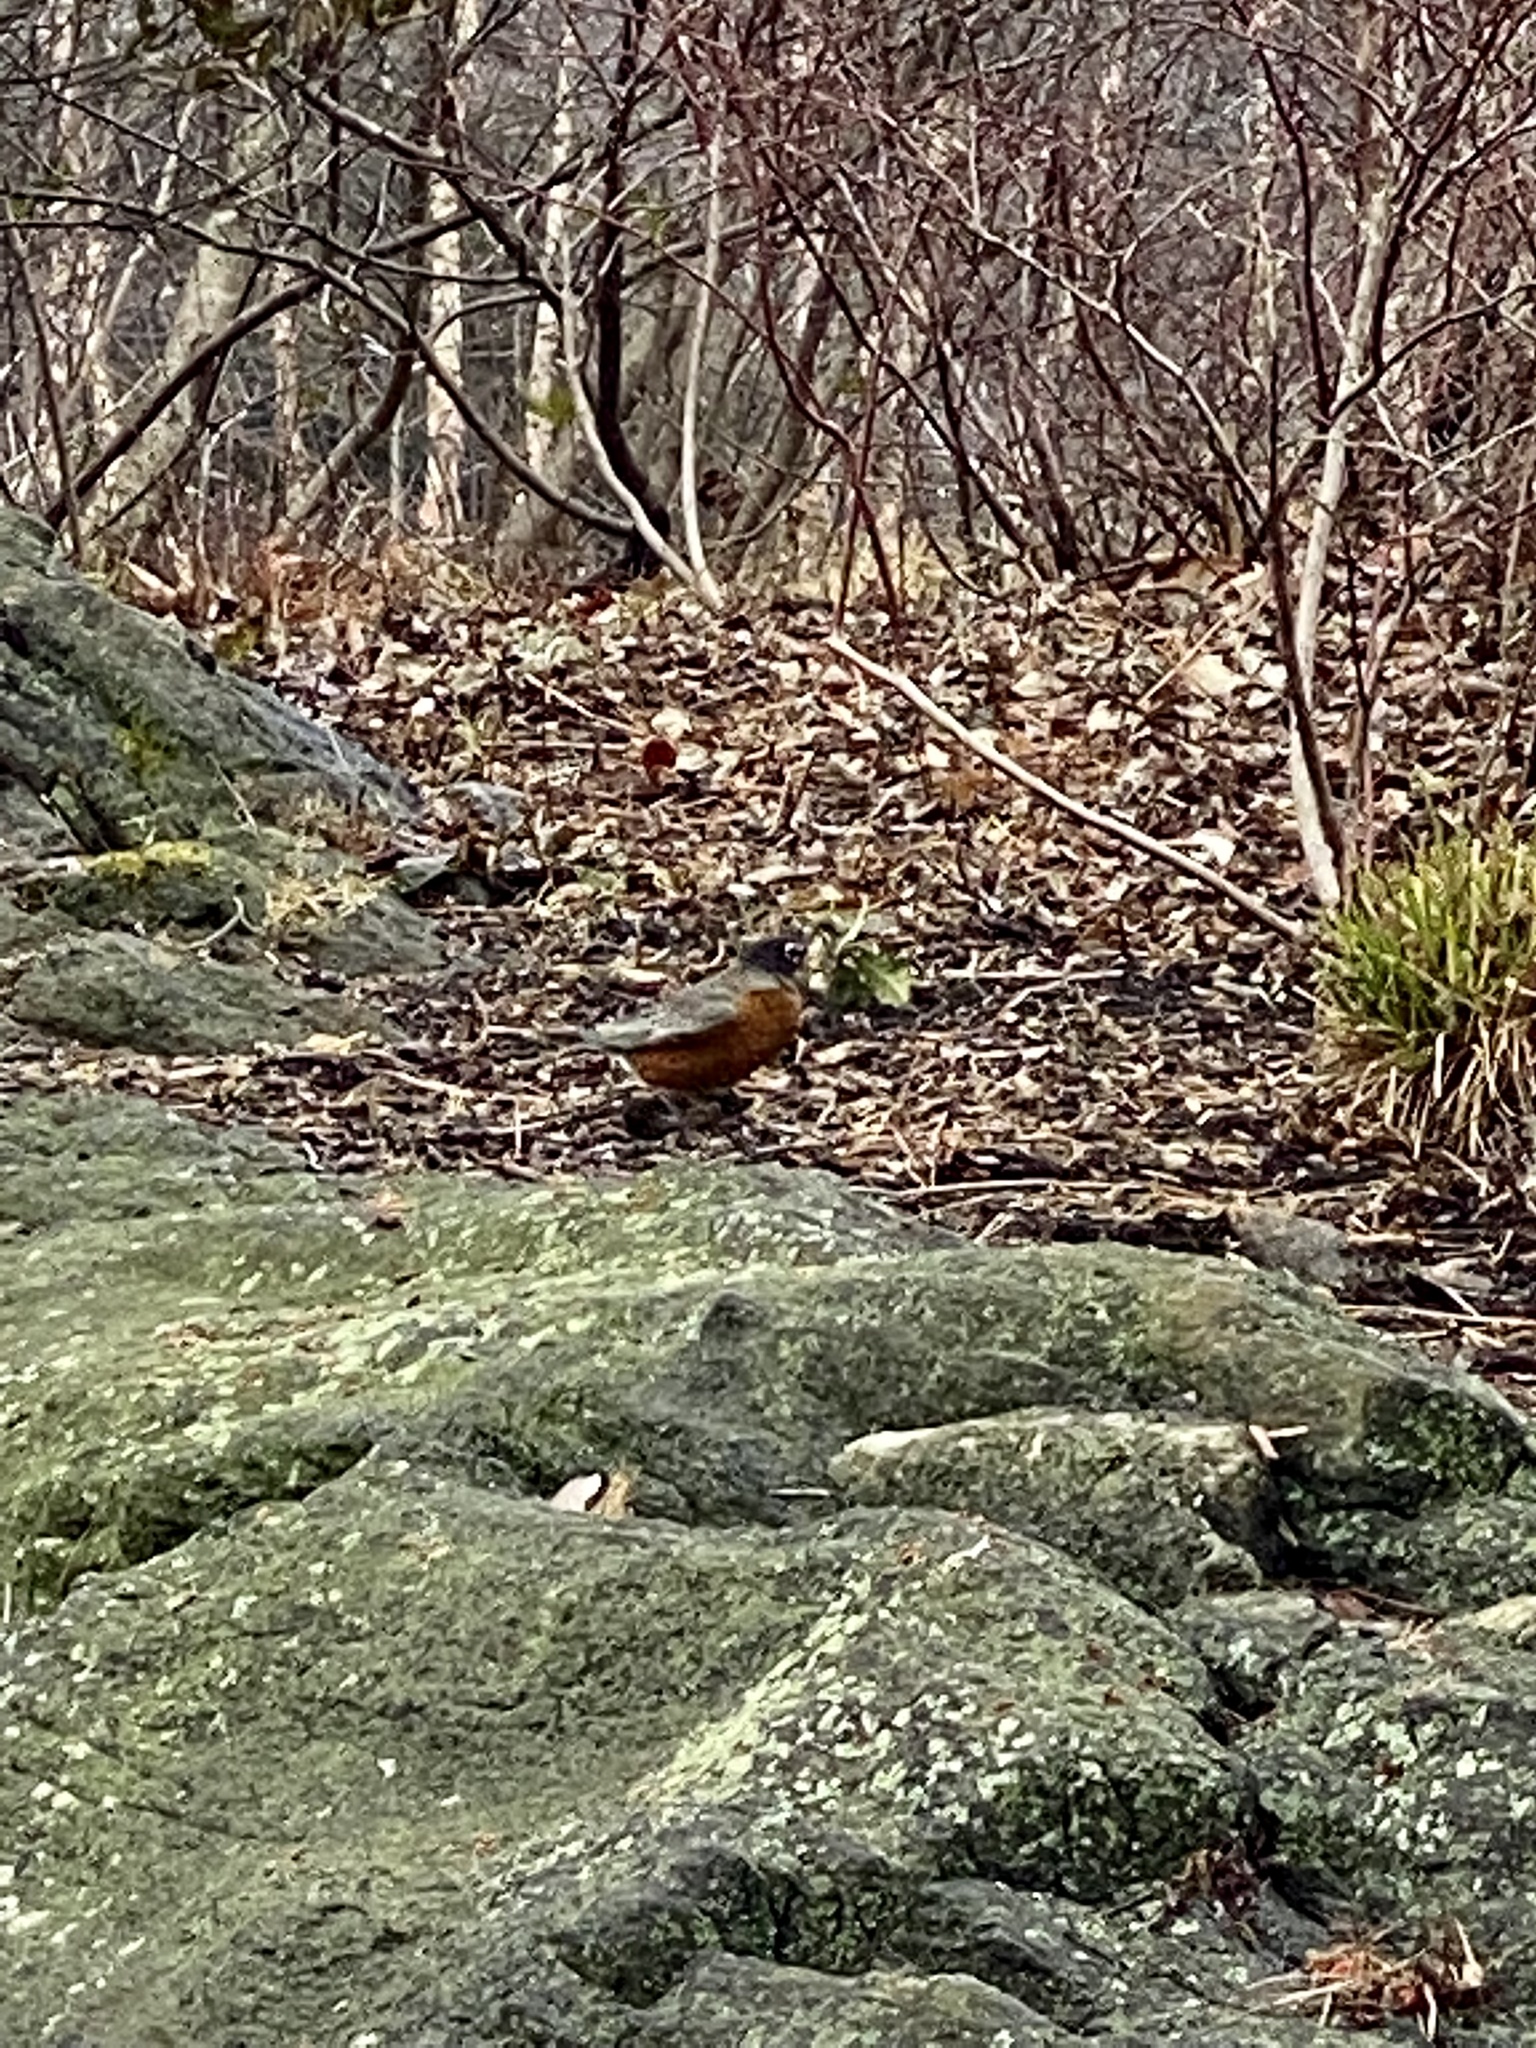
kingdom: Animalia
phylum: Chordata
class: Aves
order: Passeriformes
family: Turdidae
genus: Turdus
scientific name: Turdus migratorius
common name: American robin
